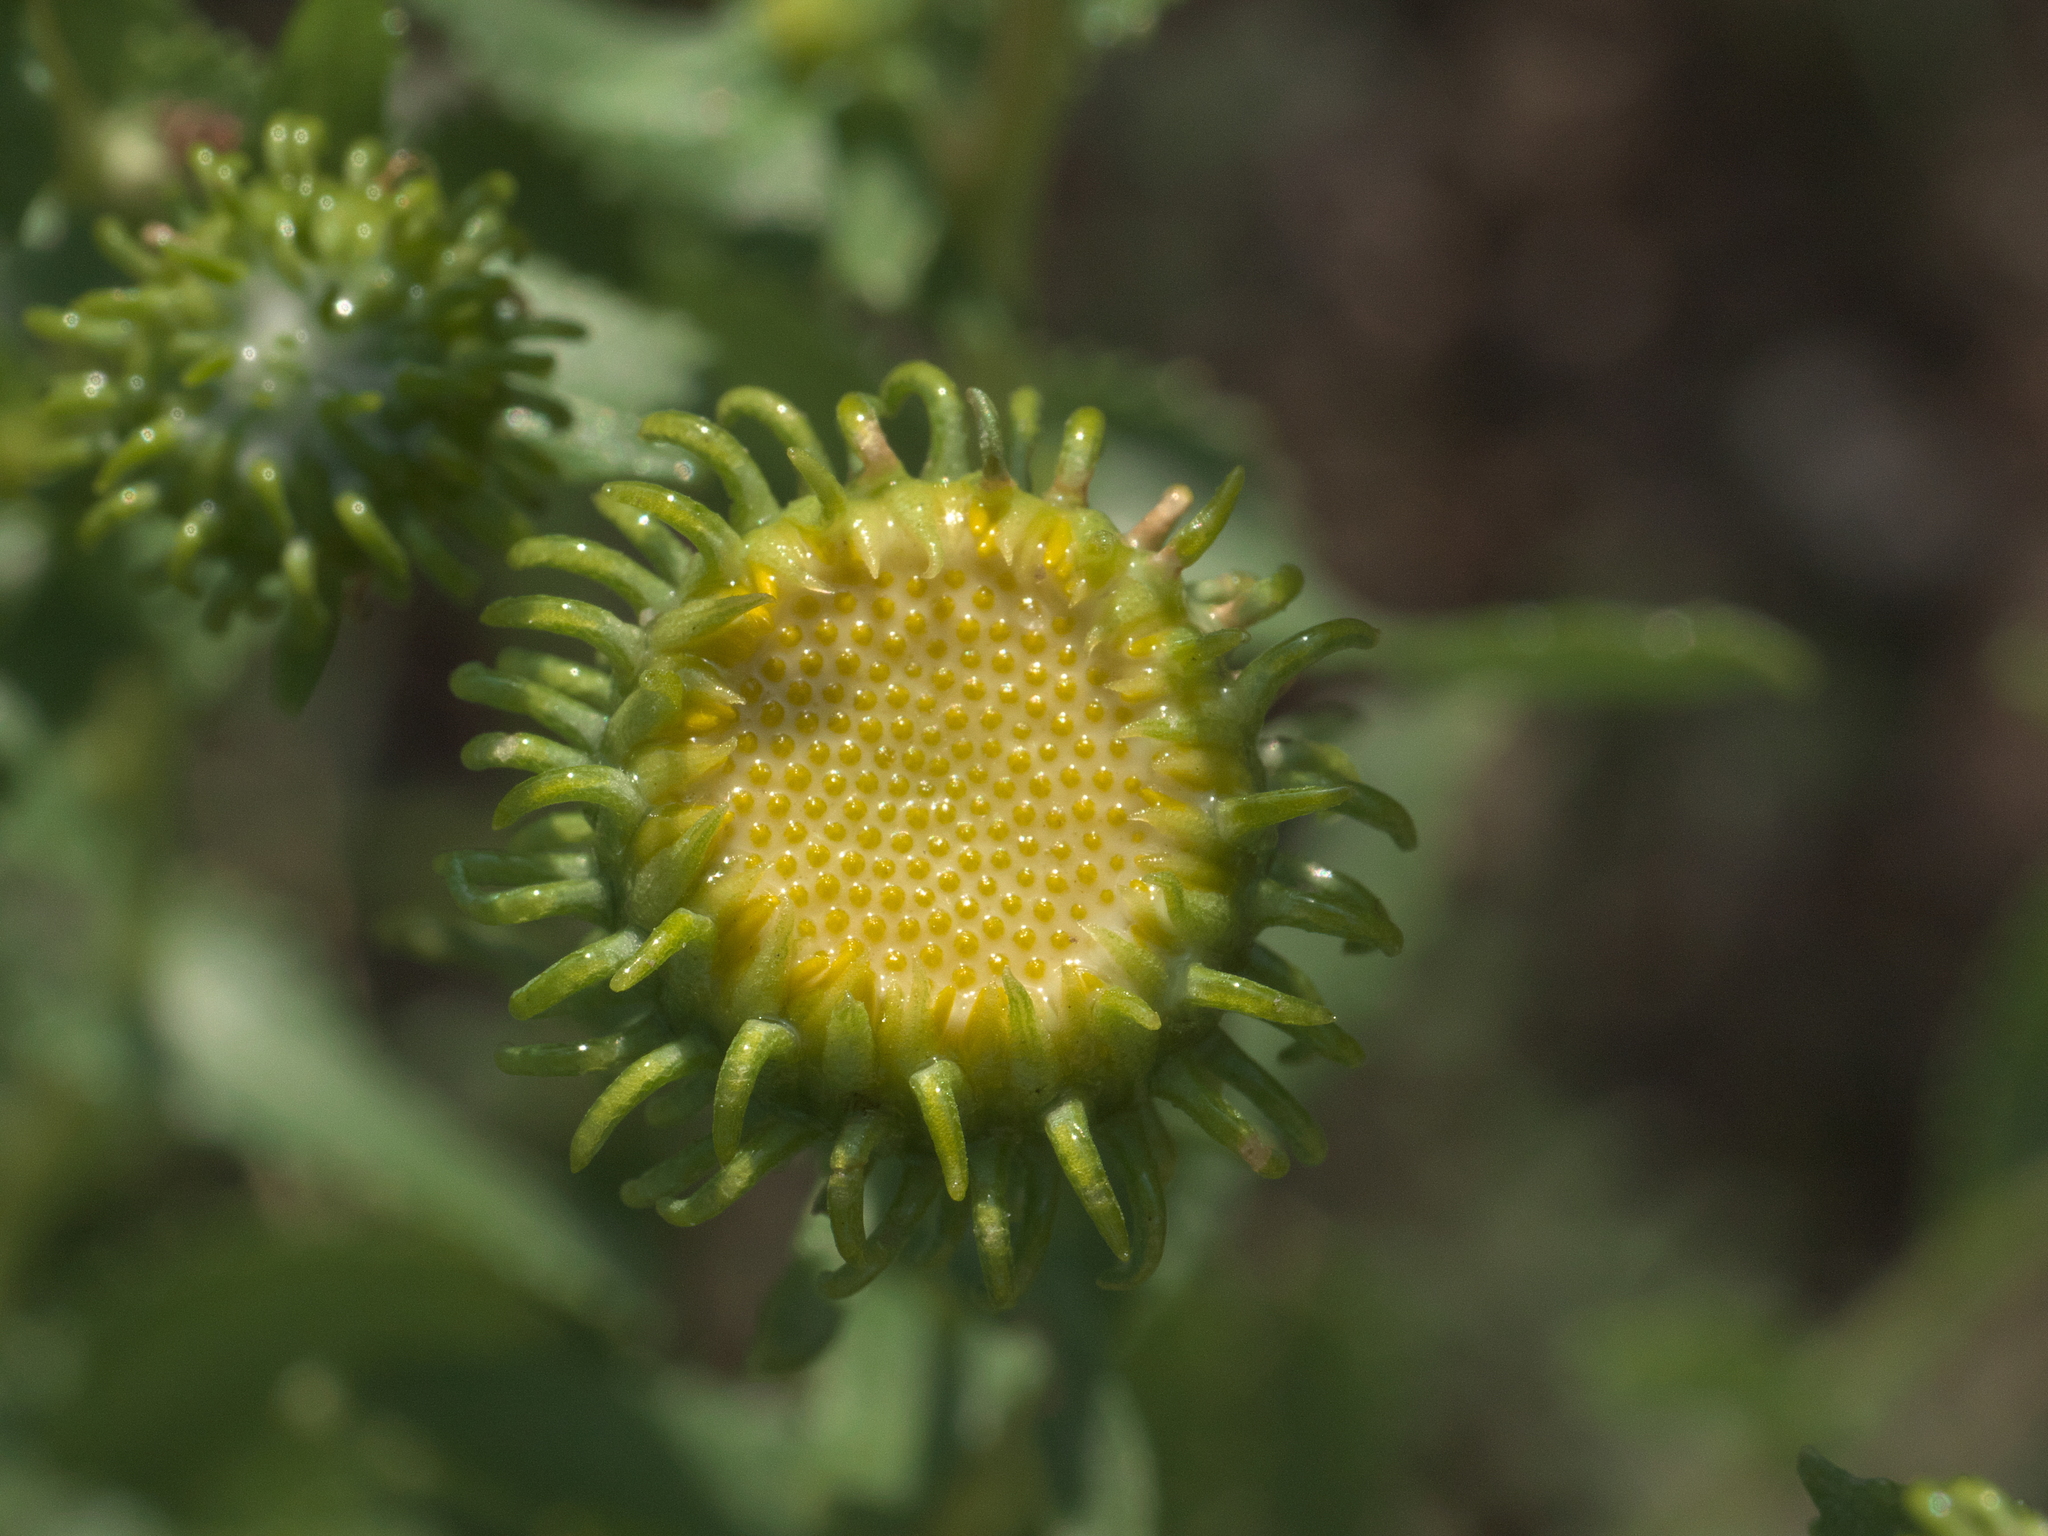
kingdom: Plantae
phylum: Tracheophyta
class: Magnoliopsida
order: Asterales
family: Asteraceae
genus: Grindelia
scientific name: Grindelia squarrosa
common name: Curly-cup gumweed
